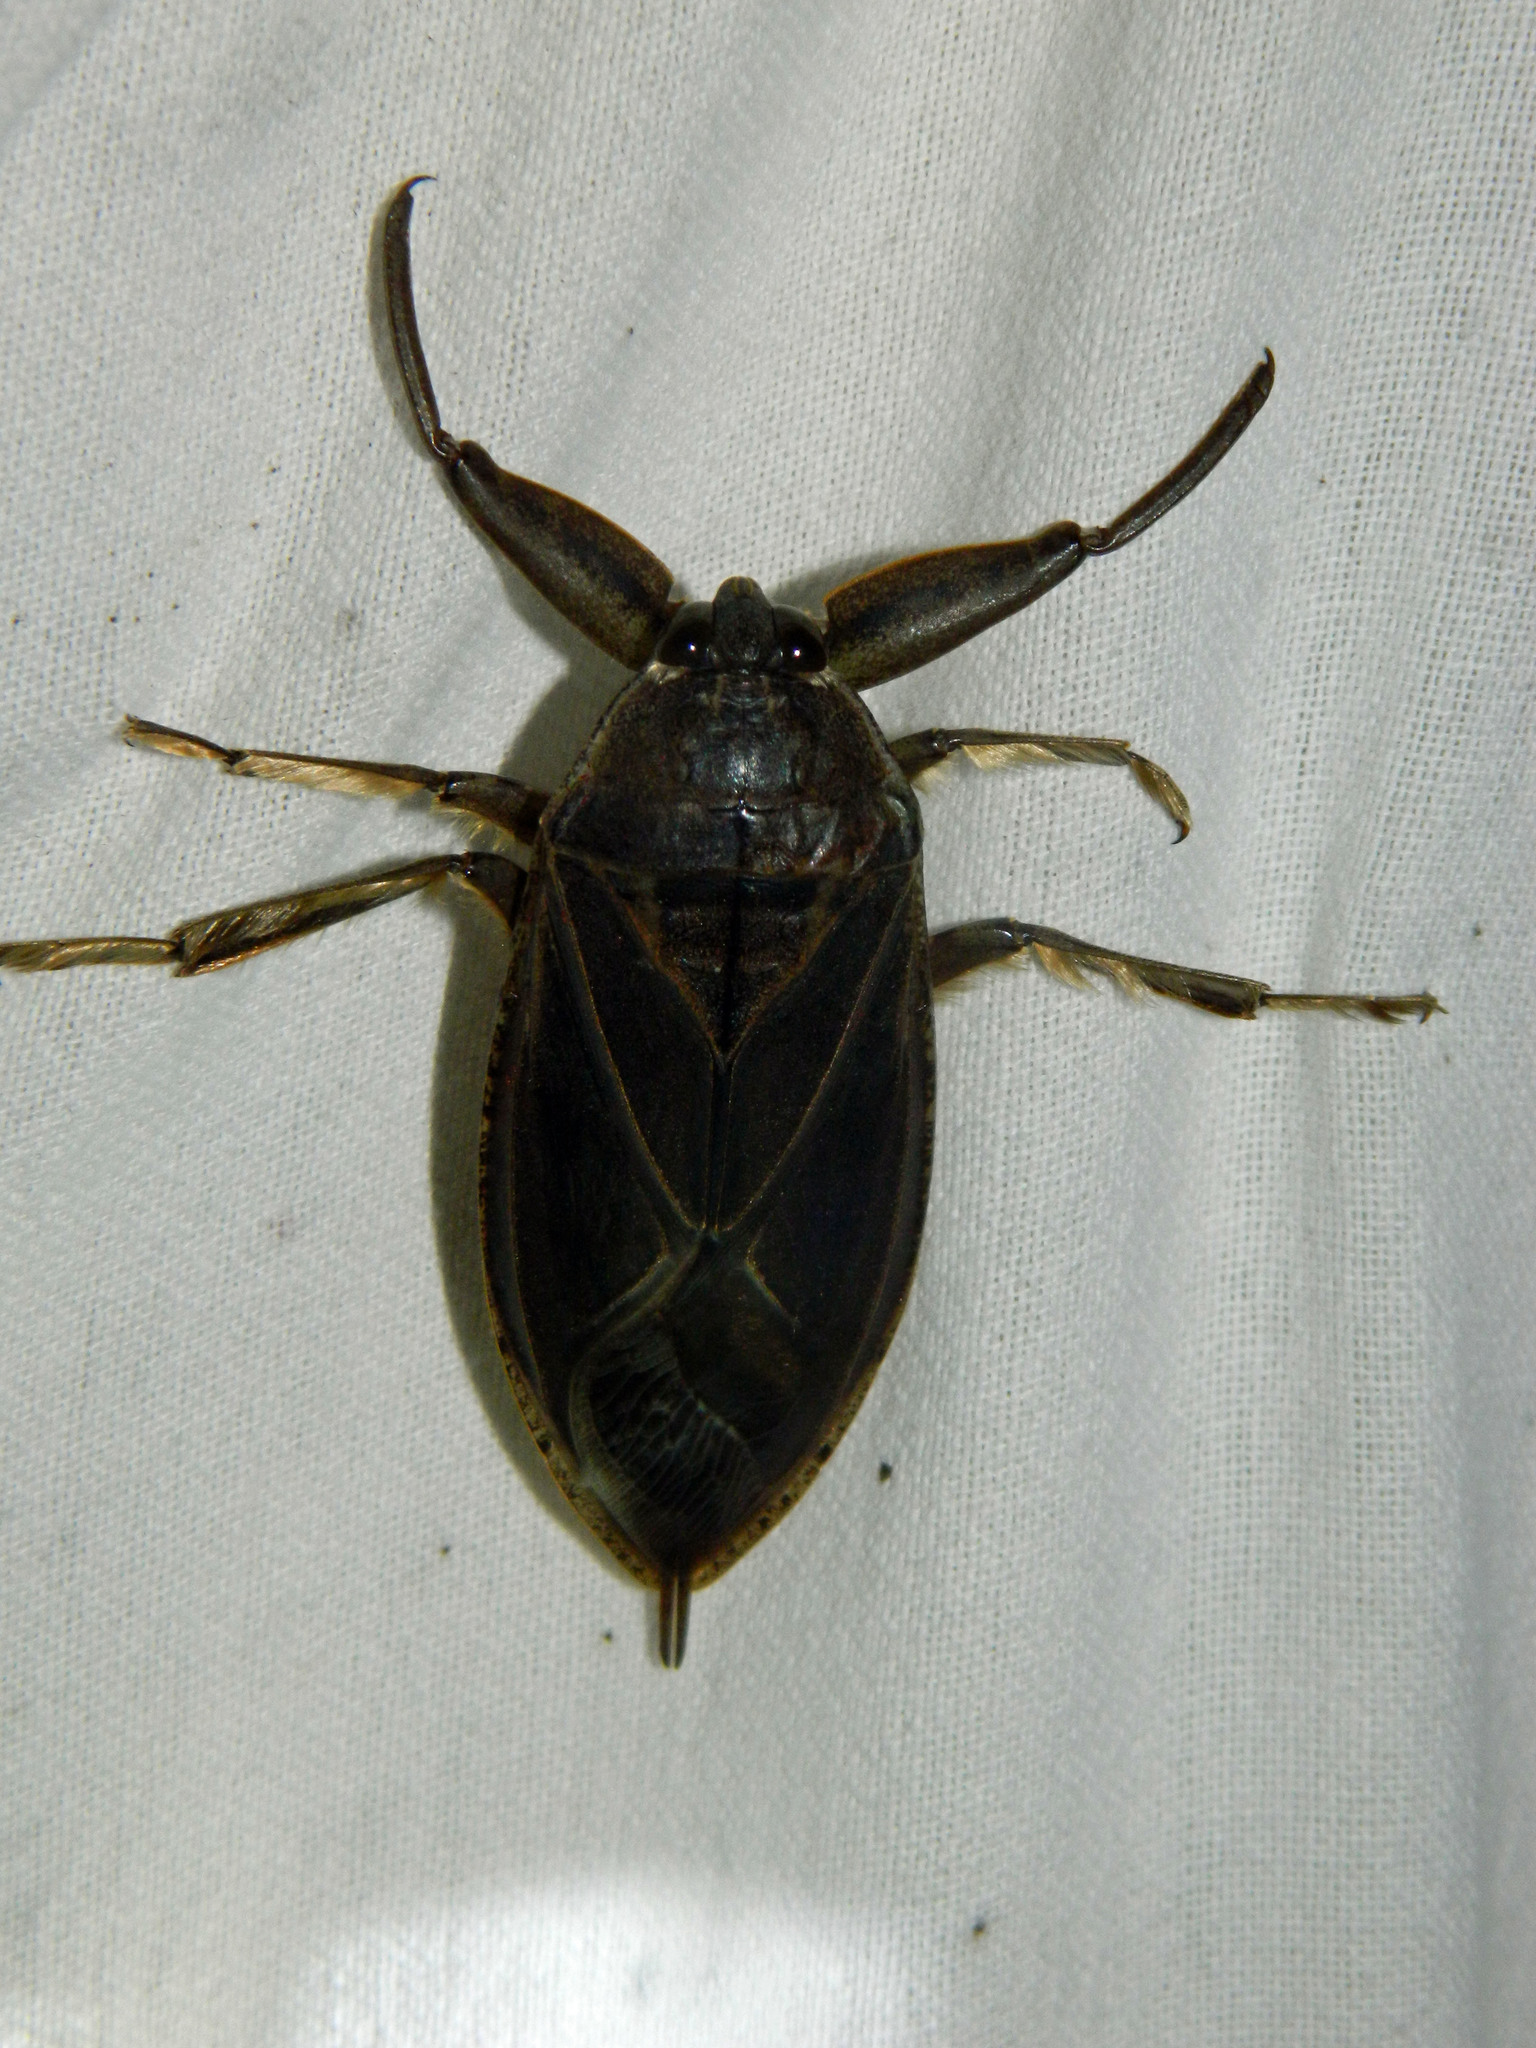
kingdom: Animalia
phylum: Arthropoda
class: Insecta
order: Hemiptera
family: Belostomatidae
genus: Lethocerus
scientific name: Lethocerus americanus
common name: Giant water bug
